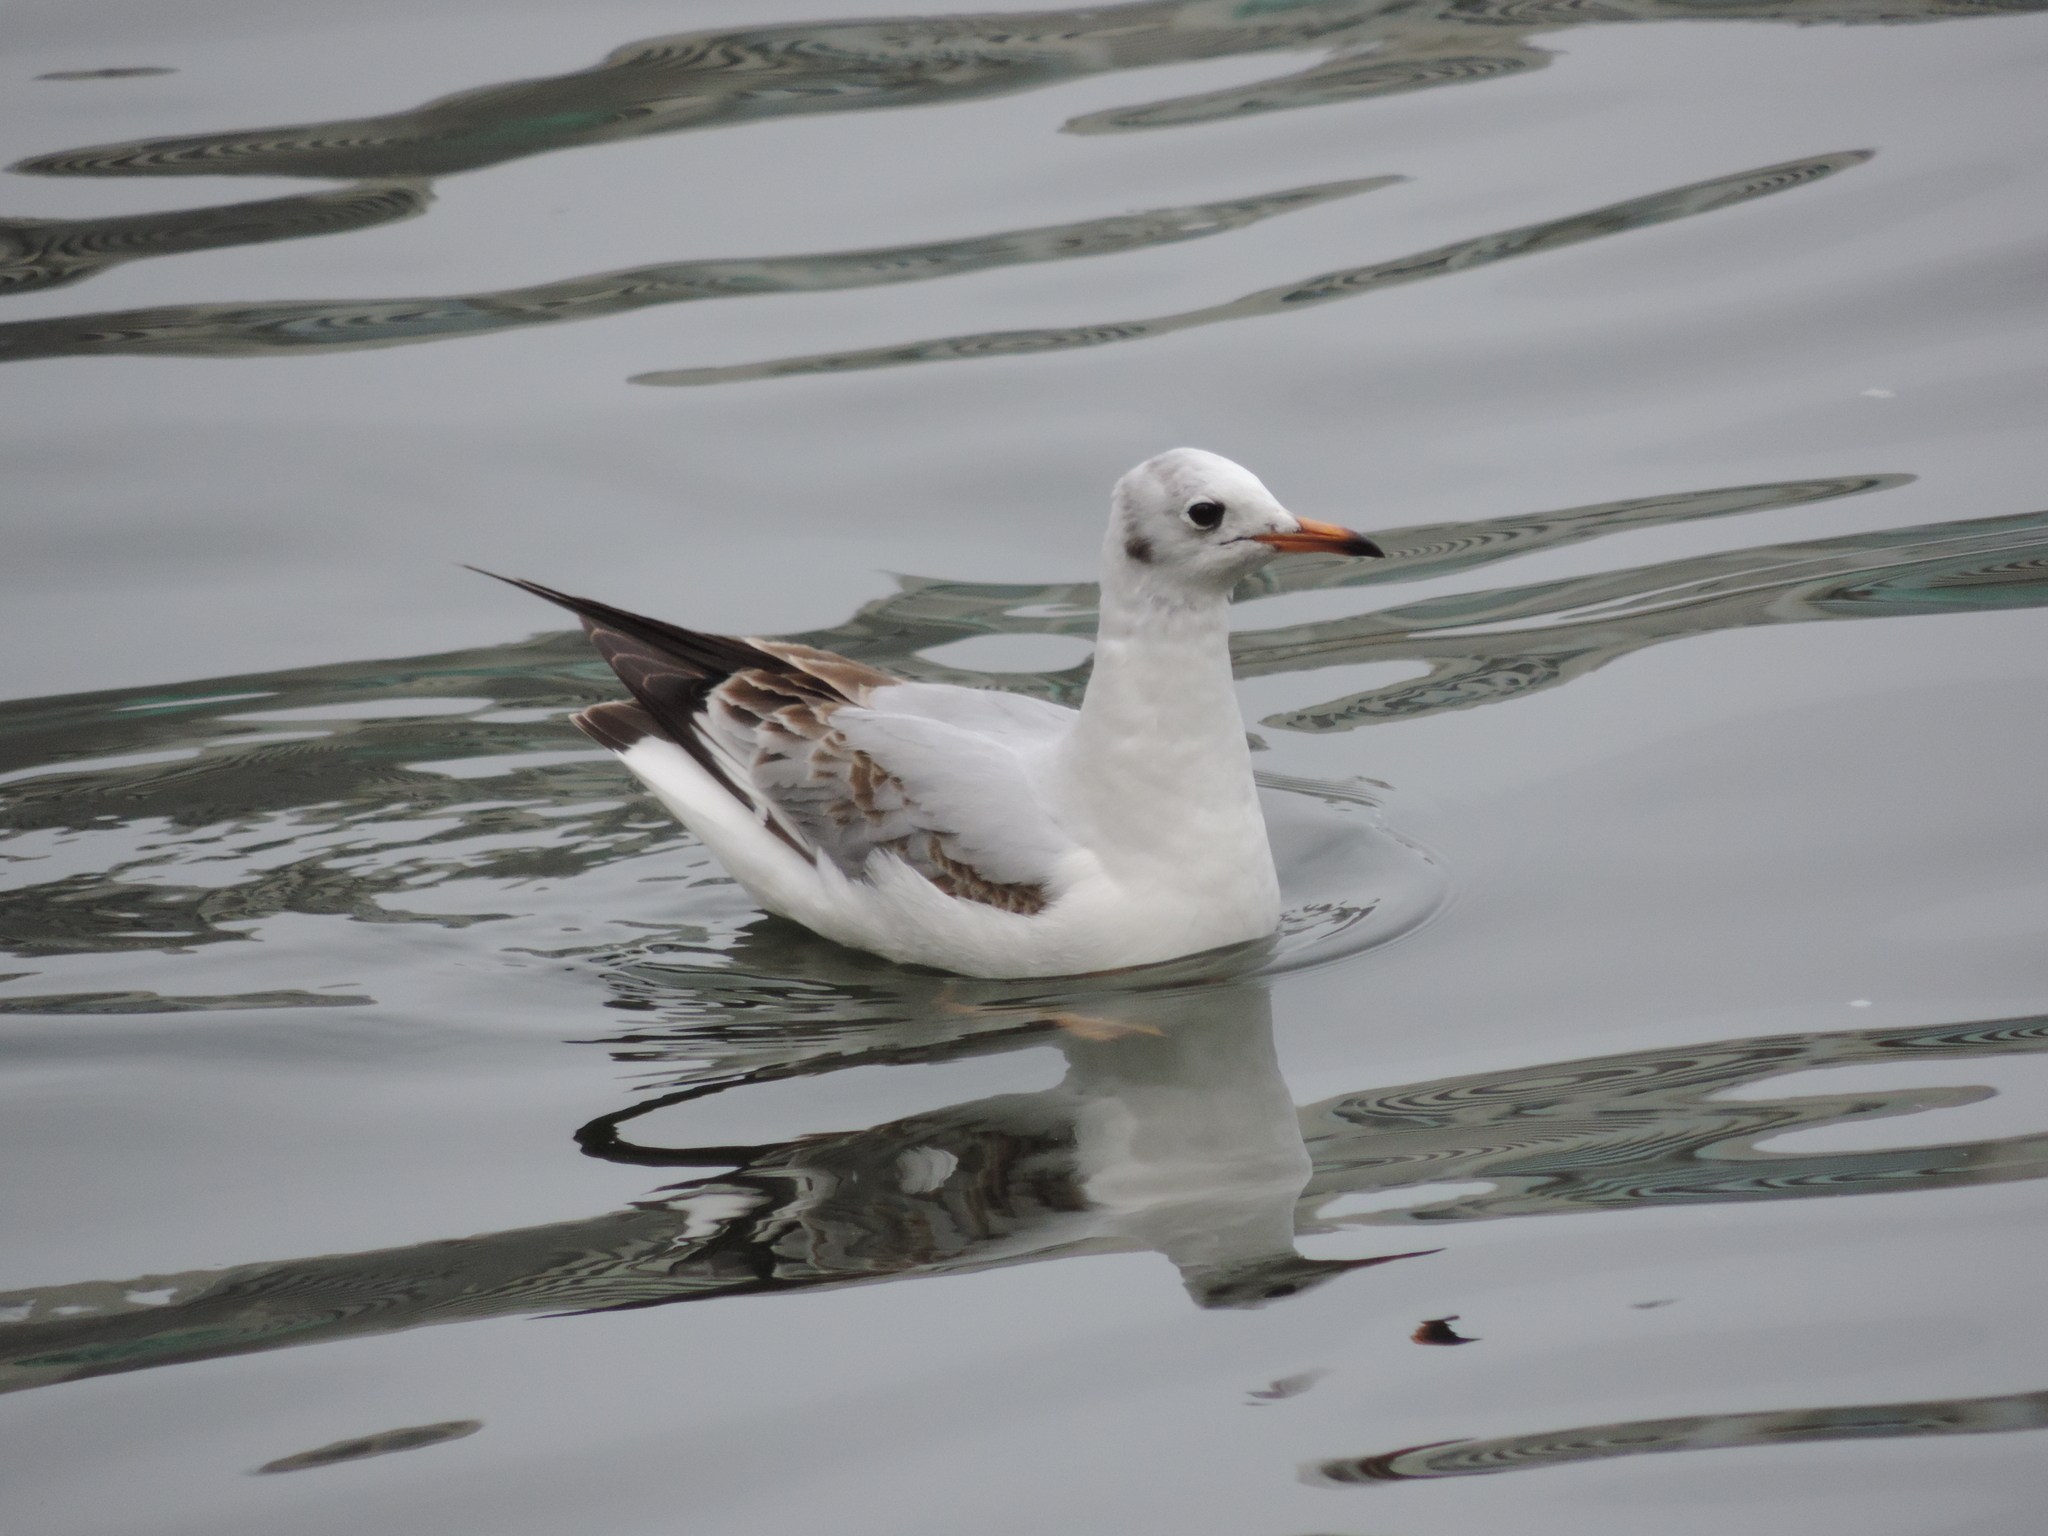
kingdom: Animalia
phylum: Chordata
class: Aves
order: Charadriiformes
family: Laridae
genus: Chroicocephalus
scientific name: Chroicocephalus ridibundus
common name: Black-headed gull
